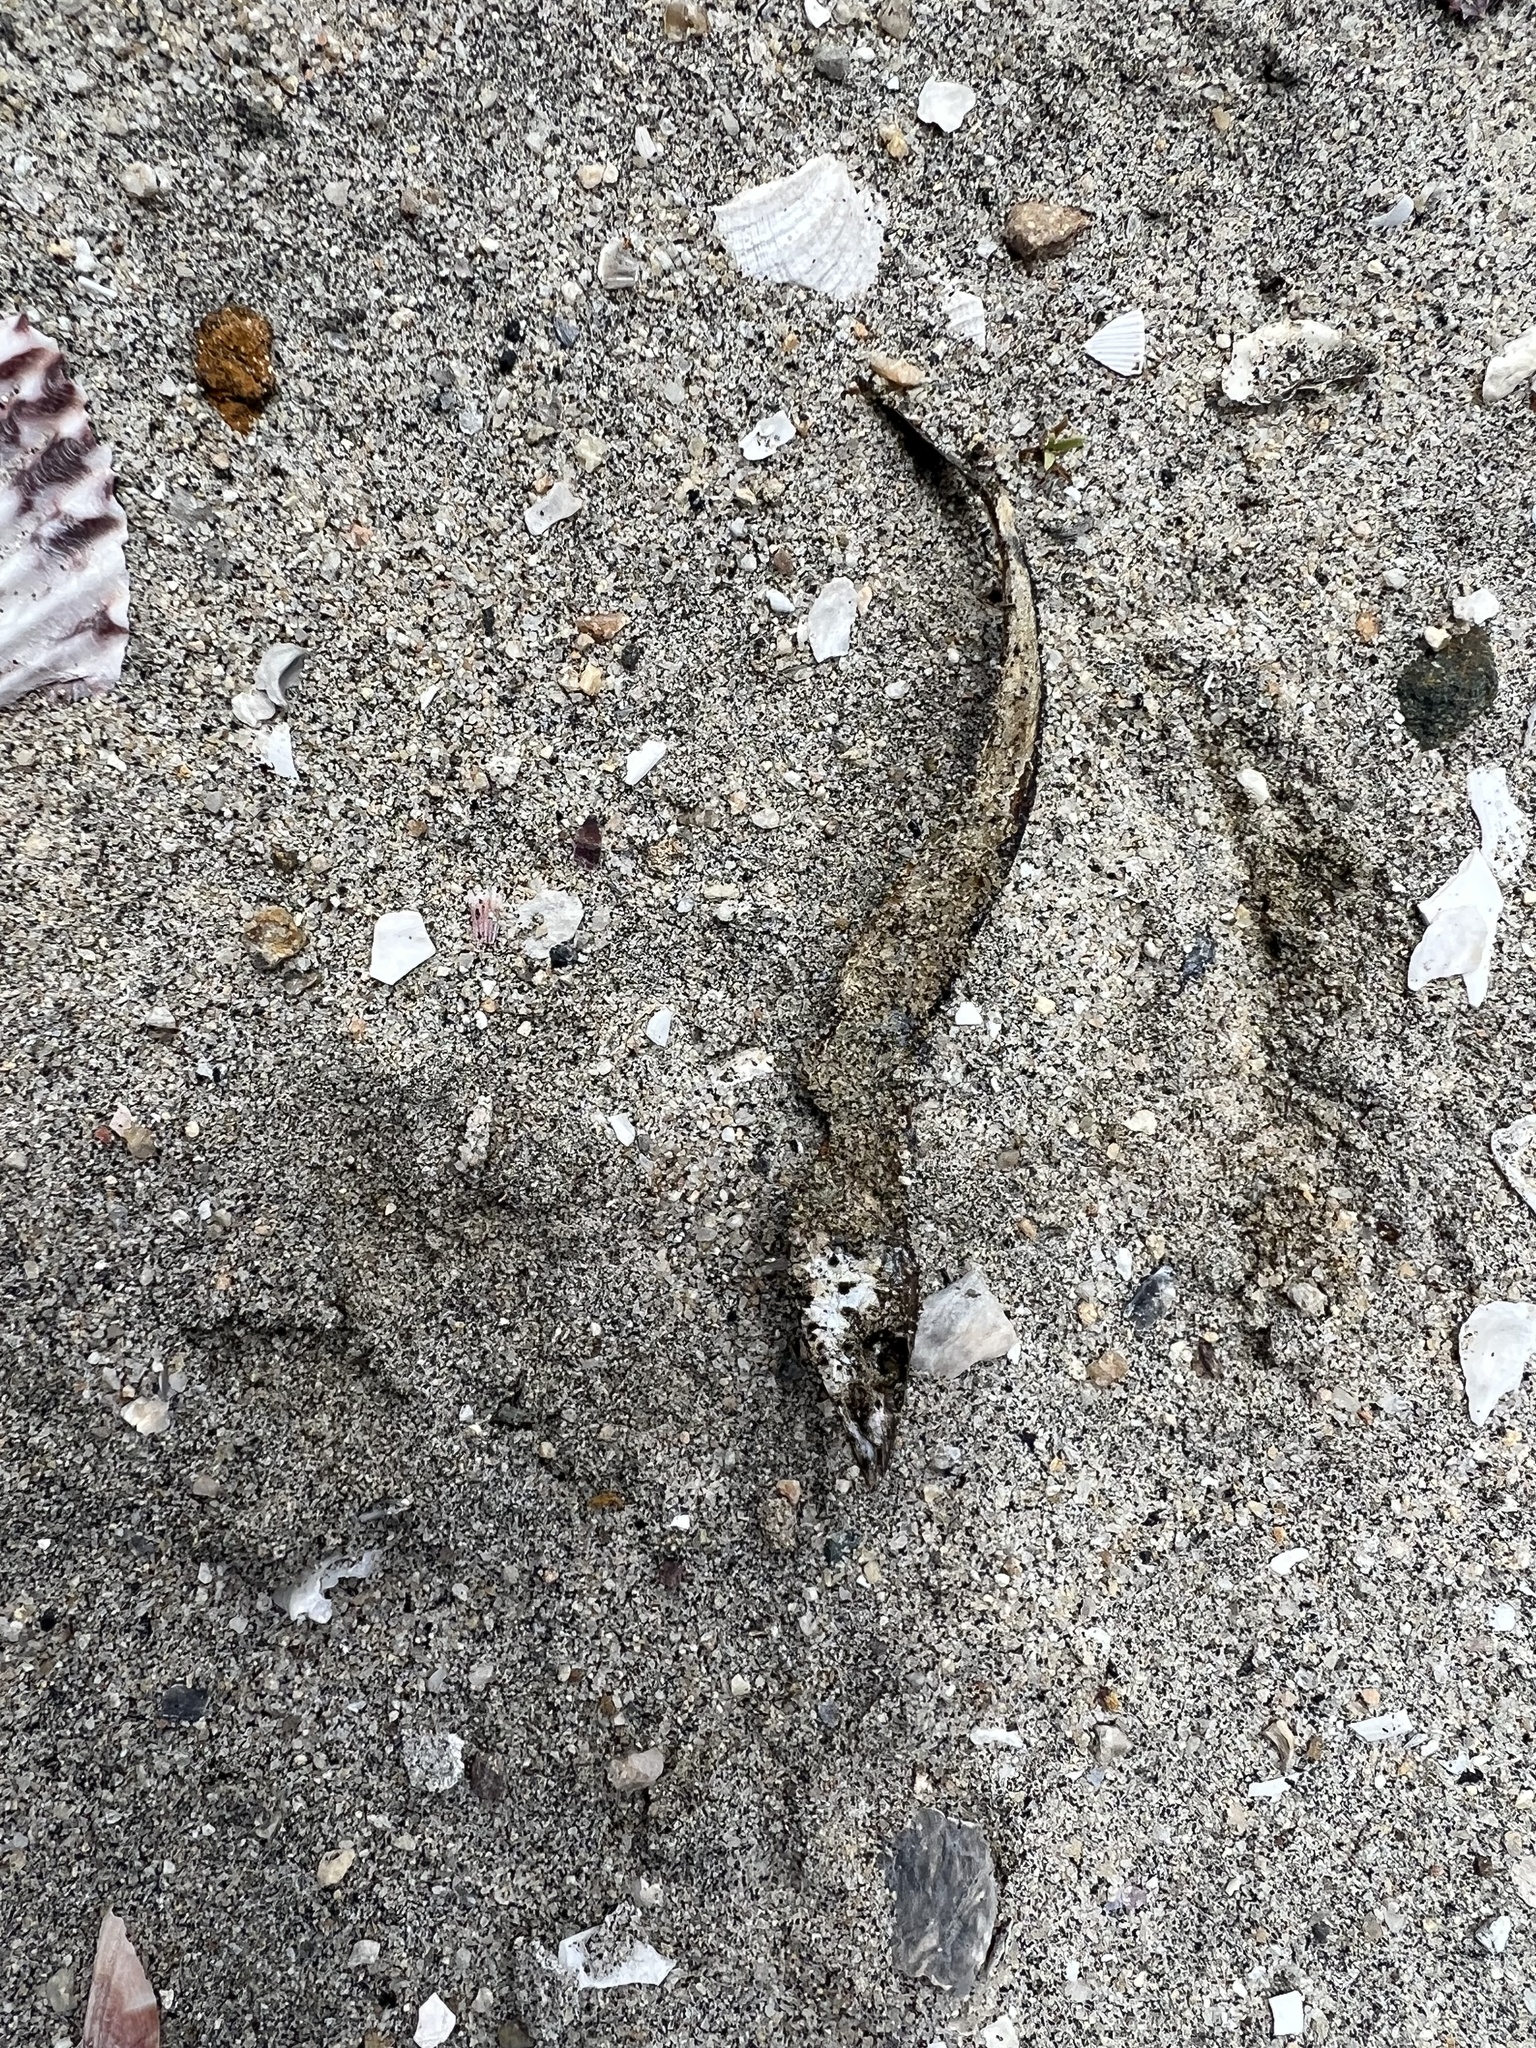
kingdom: Animalia
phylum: Chordata
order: Beloniformes
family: Scomberesocidae
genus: Cololabis
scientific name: Cololabis saira
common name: Pacific saury
